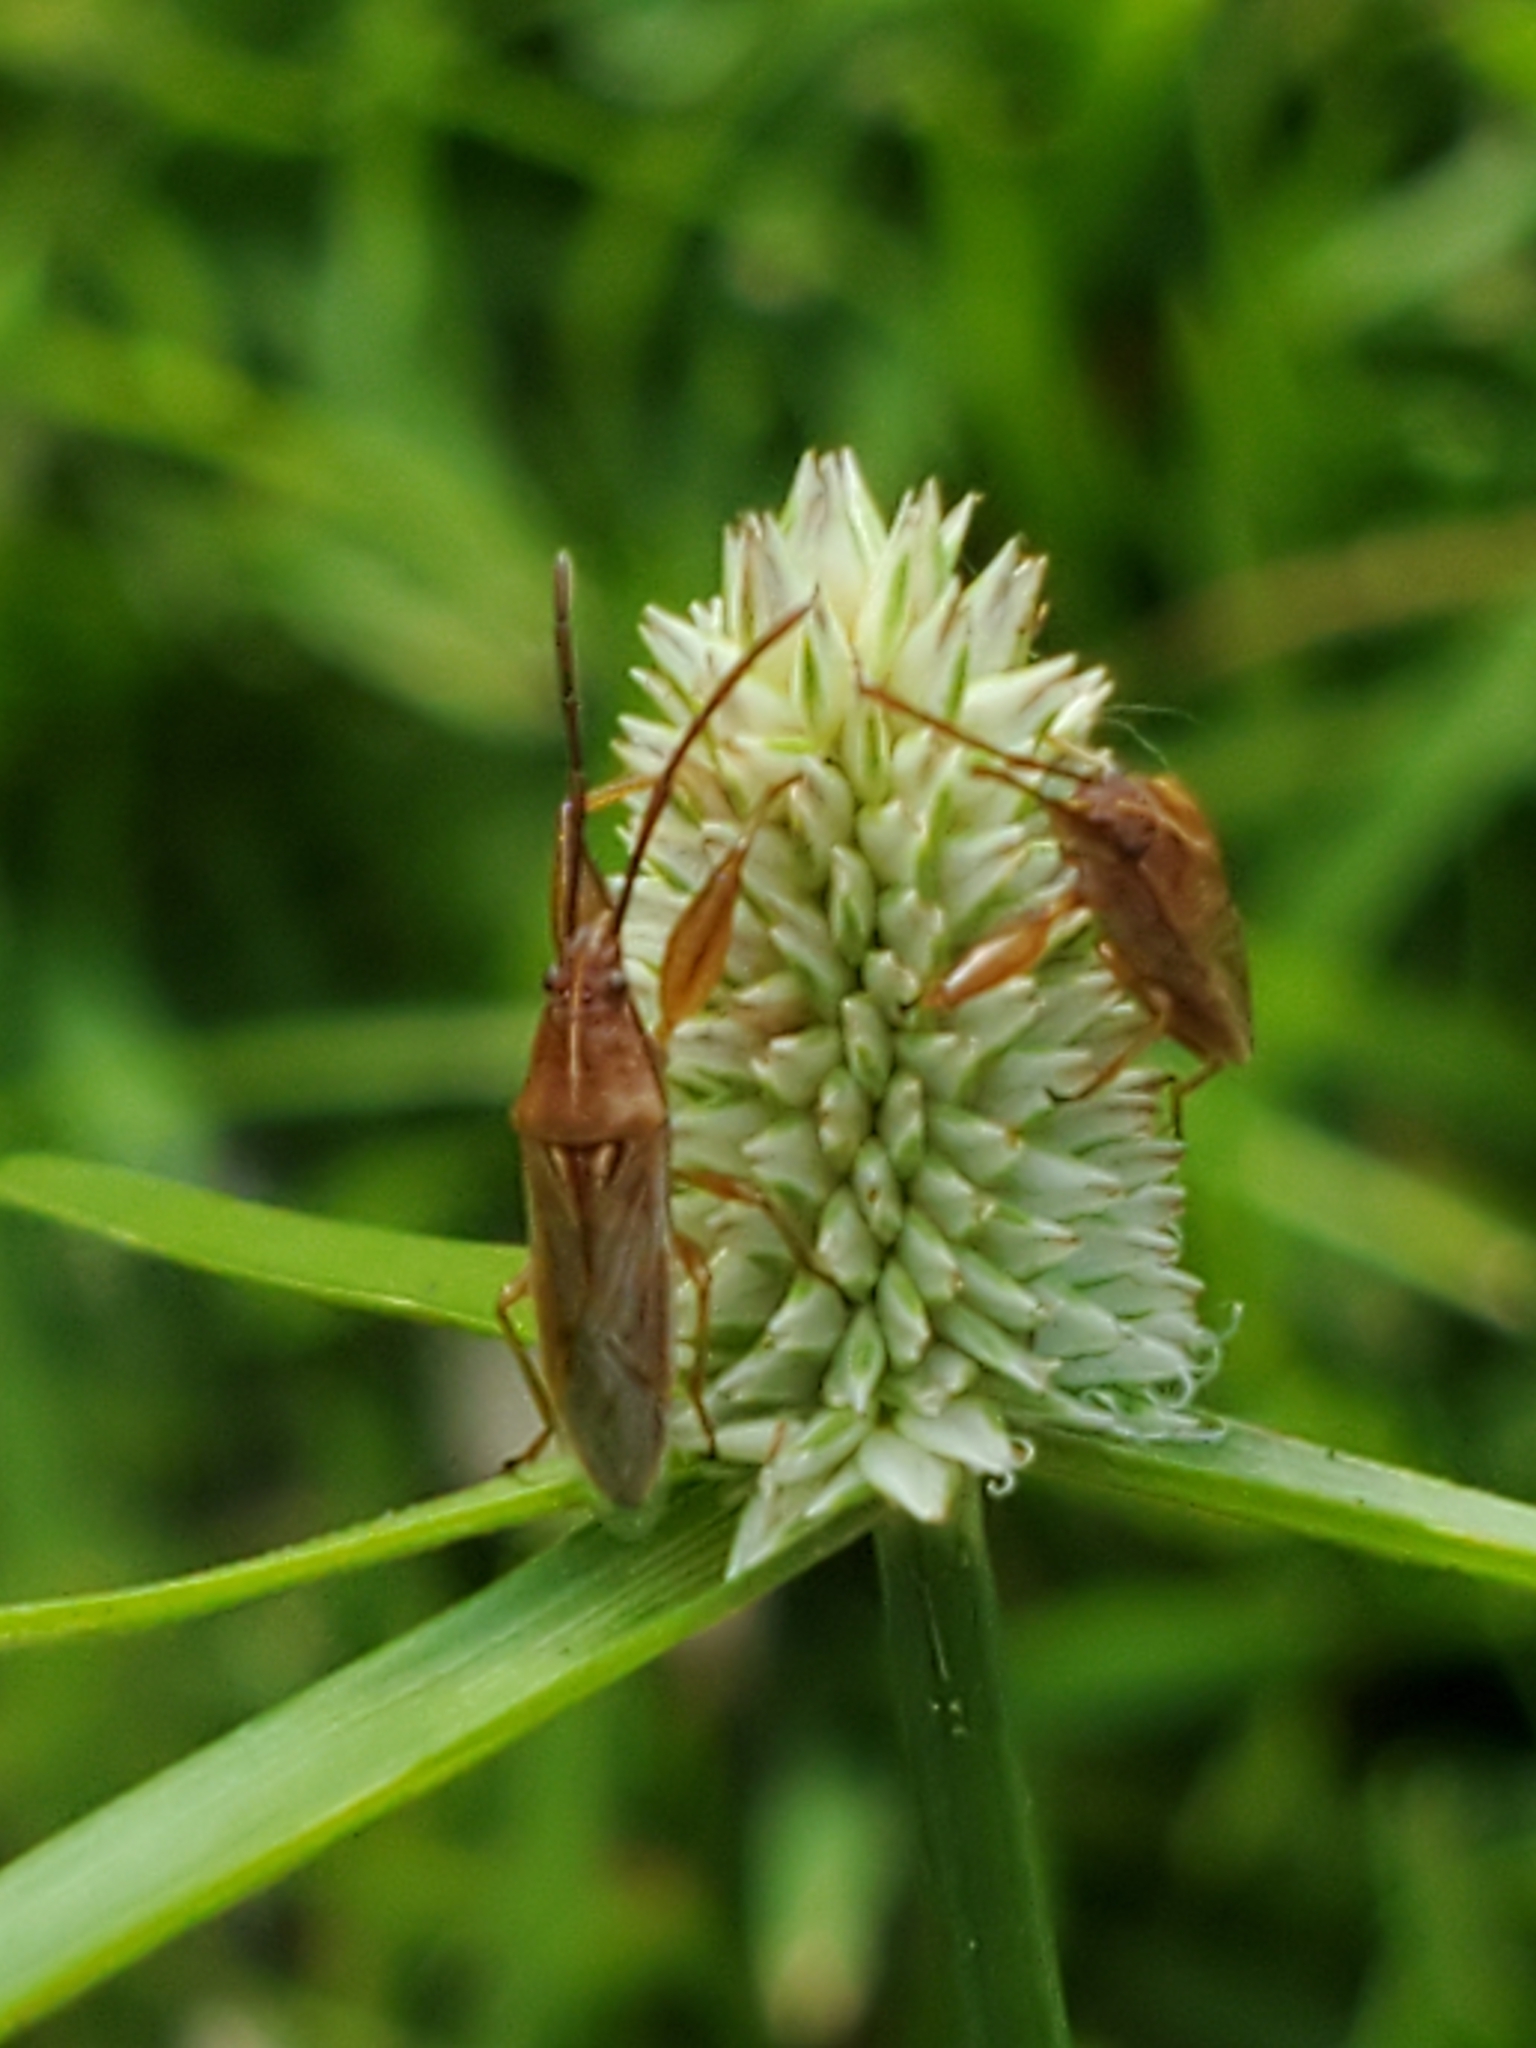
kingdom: Animalia
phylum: Arthropoda
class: Insecta
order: Hemiptera
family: Pachygronthidae
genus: Oedancala
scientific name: Oedancala crassimana
